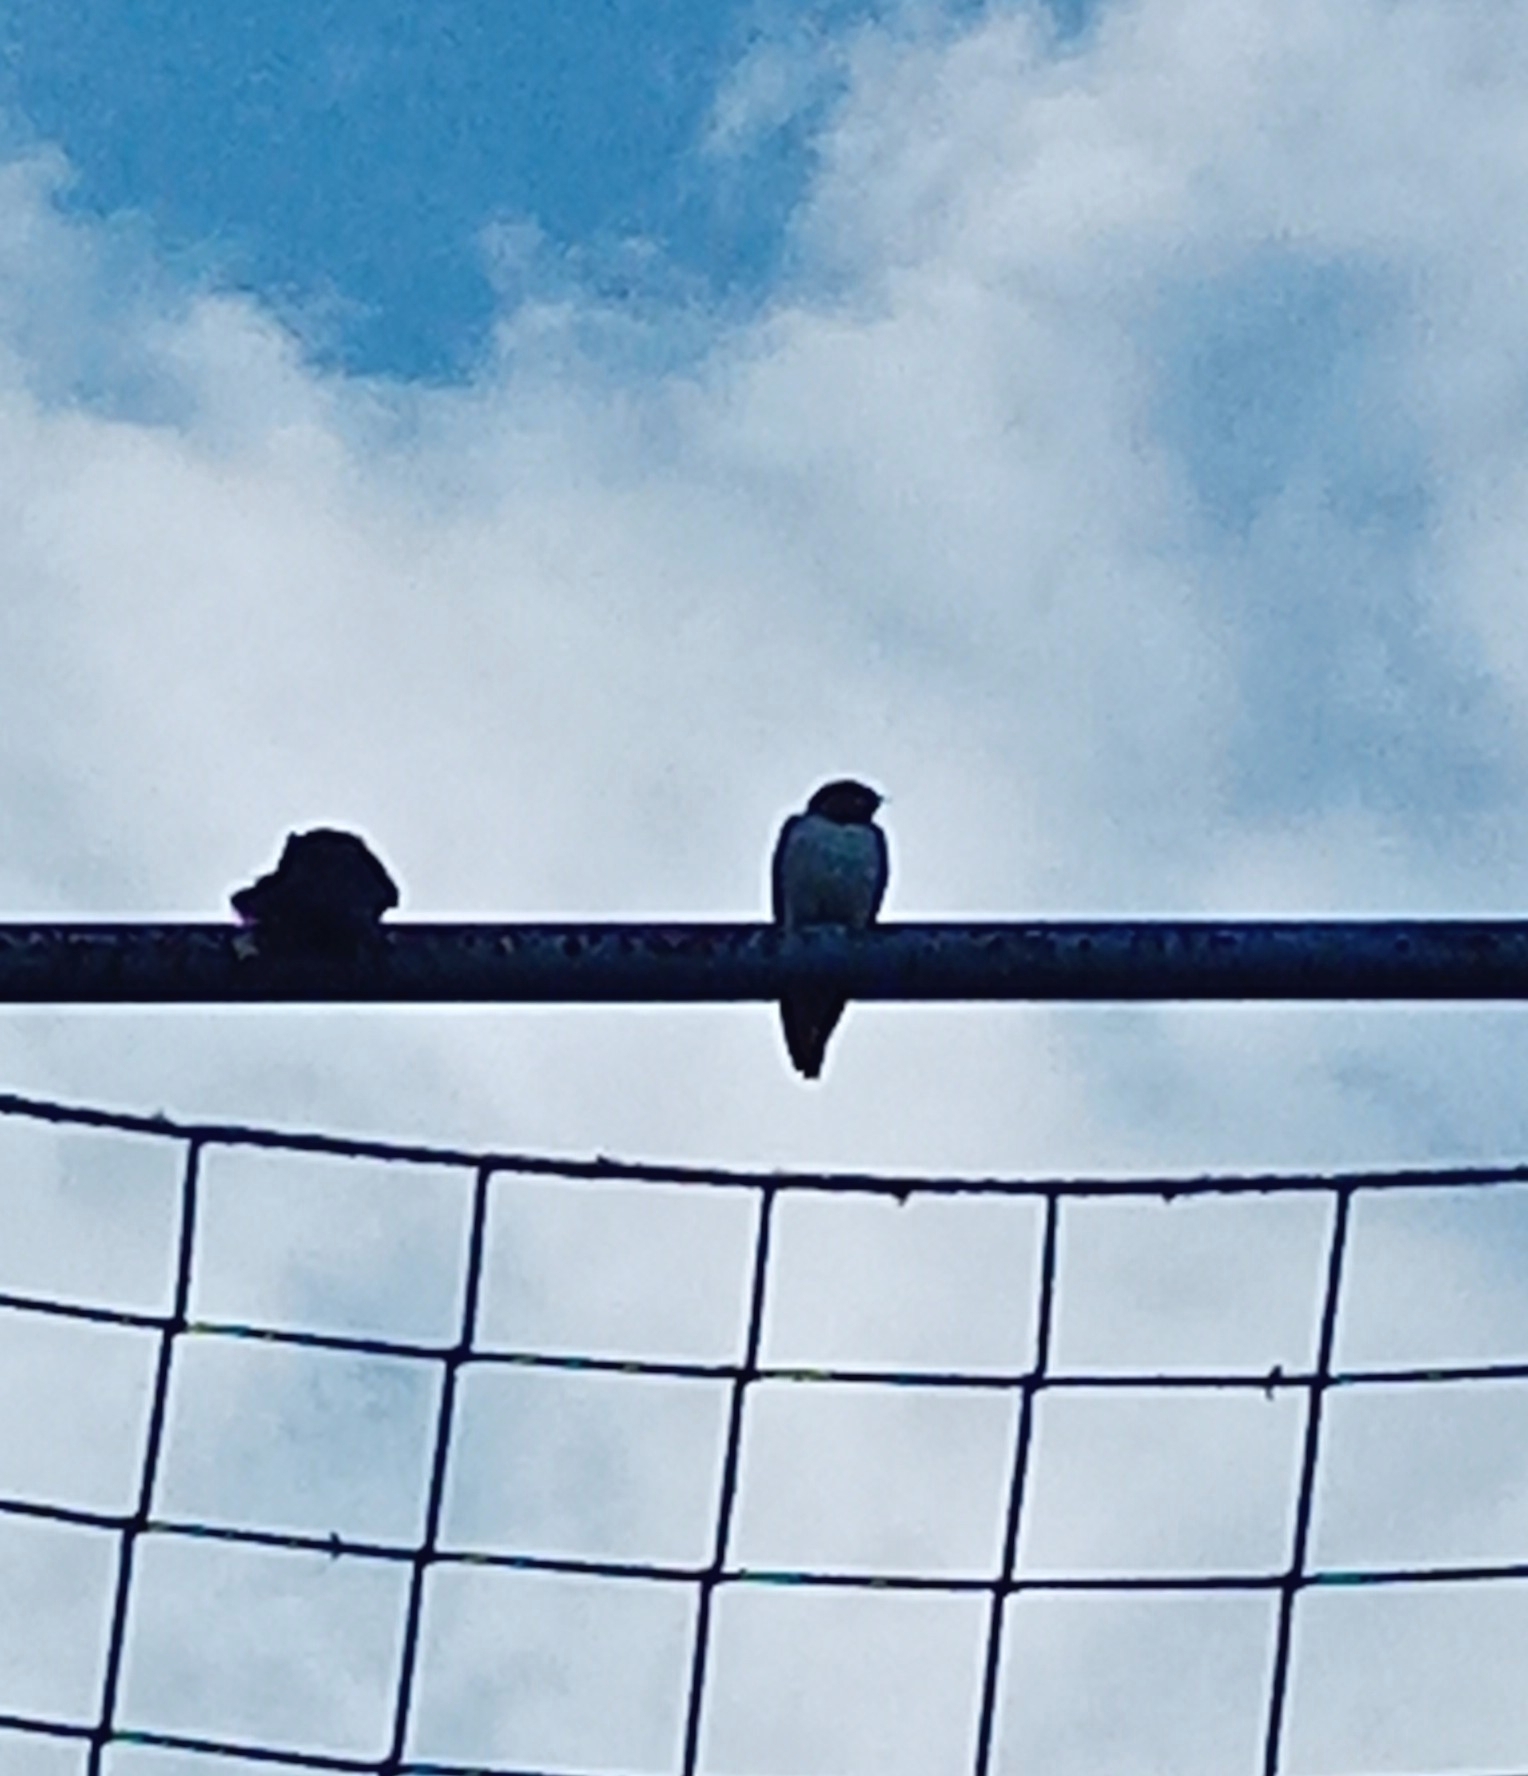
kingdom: Animalia
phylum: Chordata
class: Aves
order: Passeriformes
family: Hirundinidae
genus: Hirundo
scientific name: Hirundo rustica
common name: Barn swallow
